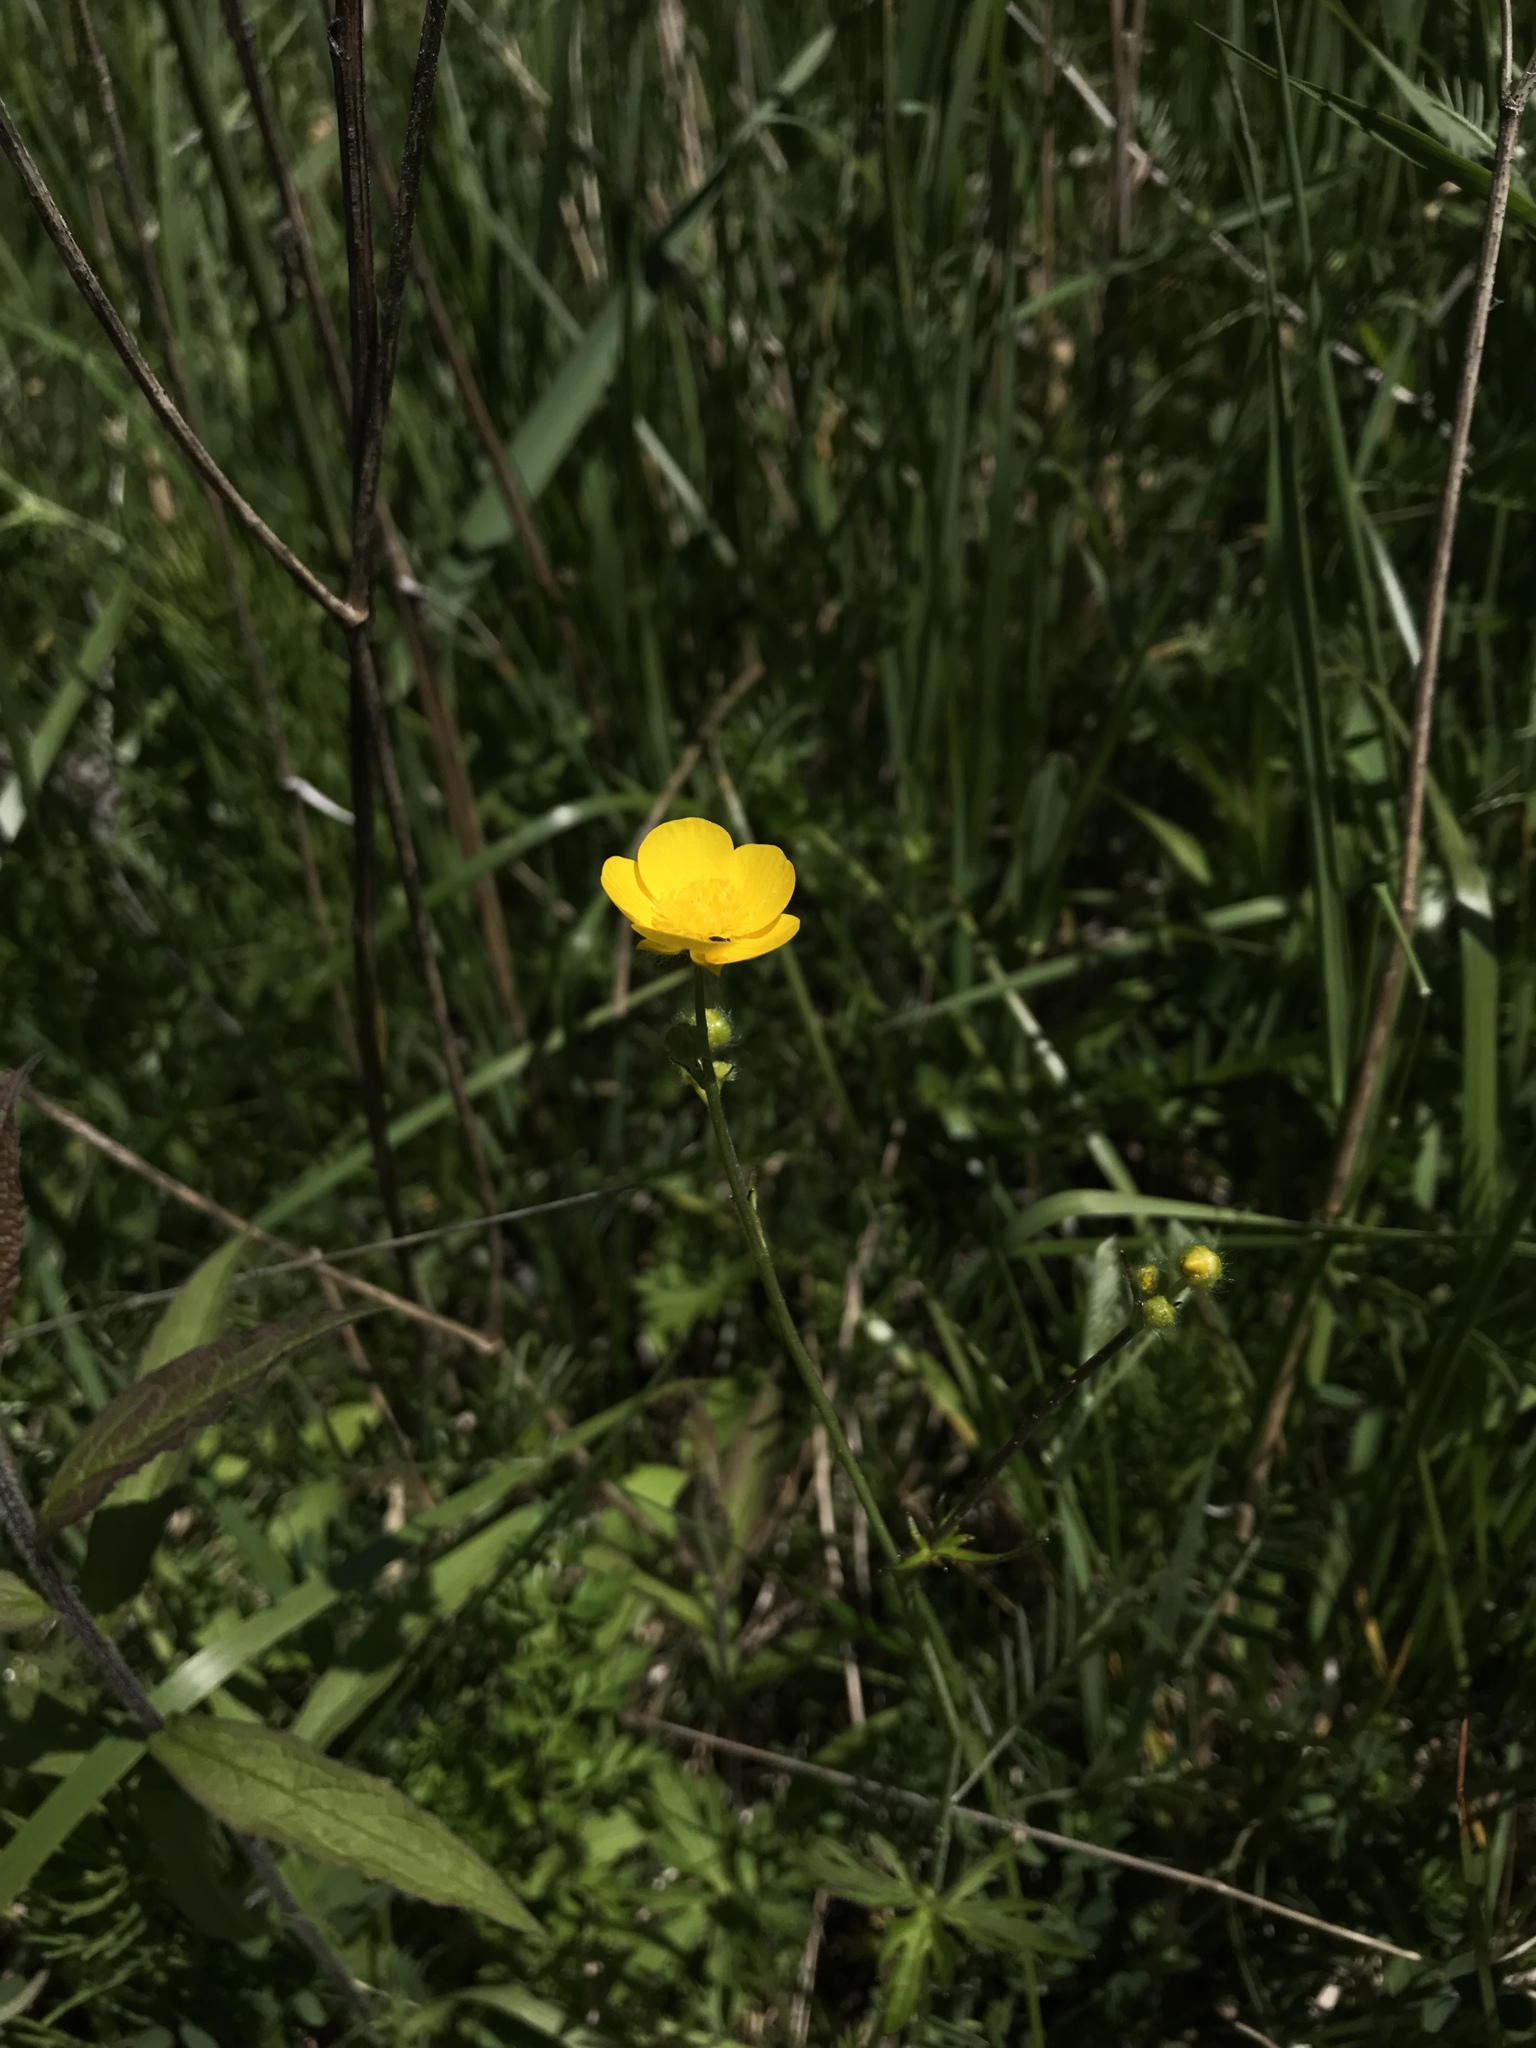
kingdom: Plantae
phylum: Tracheophyta
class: Magnoliopsida
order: Ranunculales
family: Ranunculaceae
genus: Ranunculus
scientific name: Ranunculus acris
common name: Meadow buttercup
